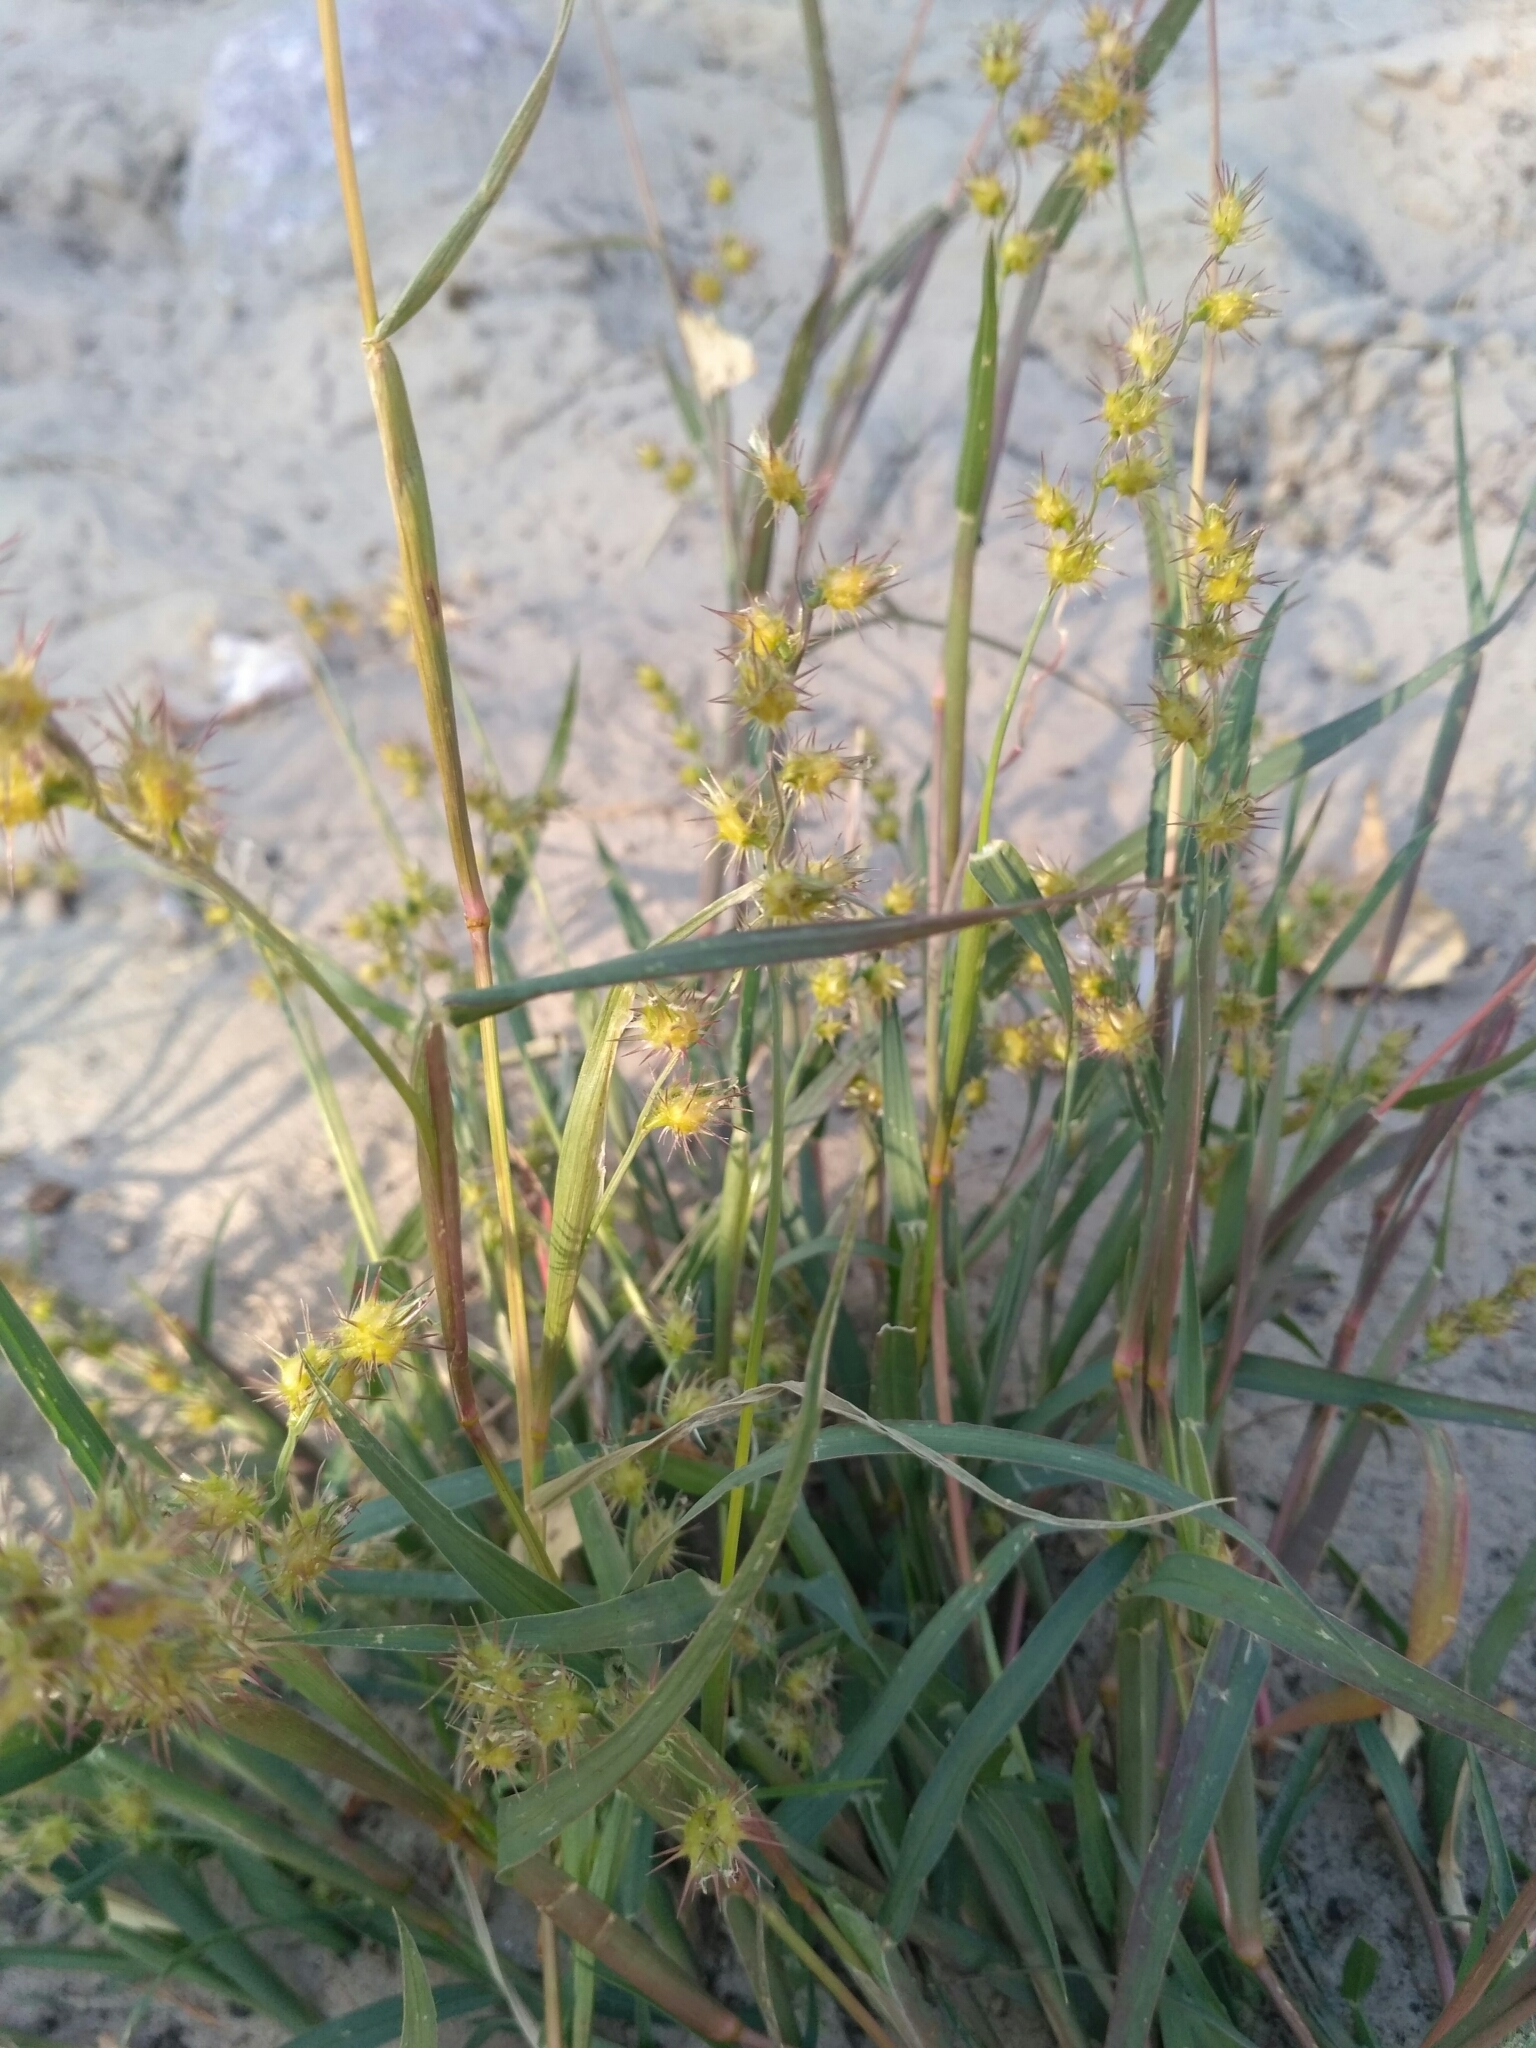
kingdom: Plantae
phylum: Tracheophyta
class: Liliopsida
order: Poales
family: Poaceae
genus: Cenchrus
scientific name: Cenchrus longispinus
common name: Mat sandbur
